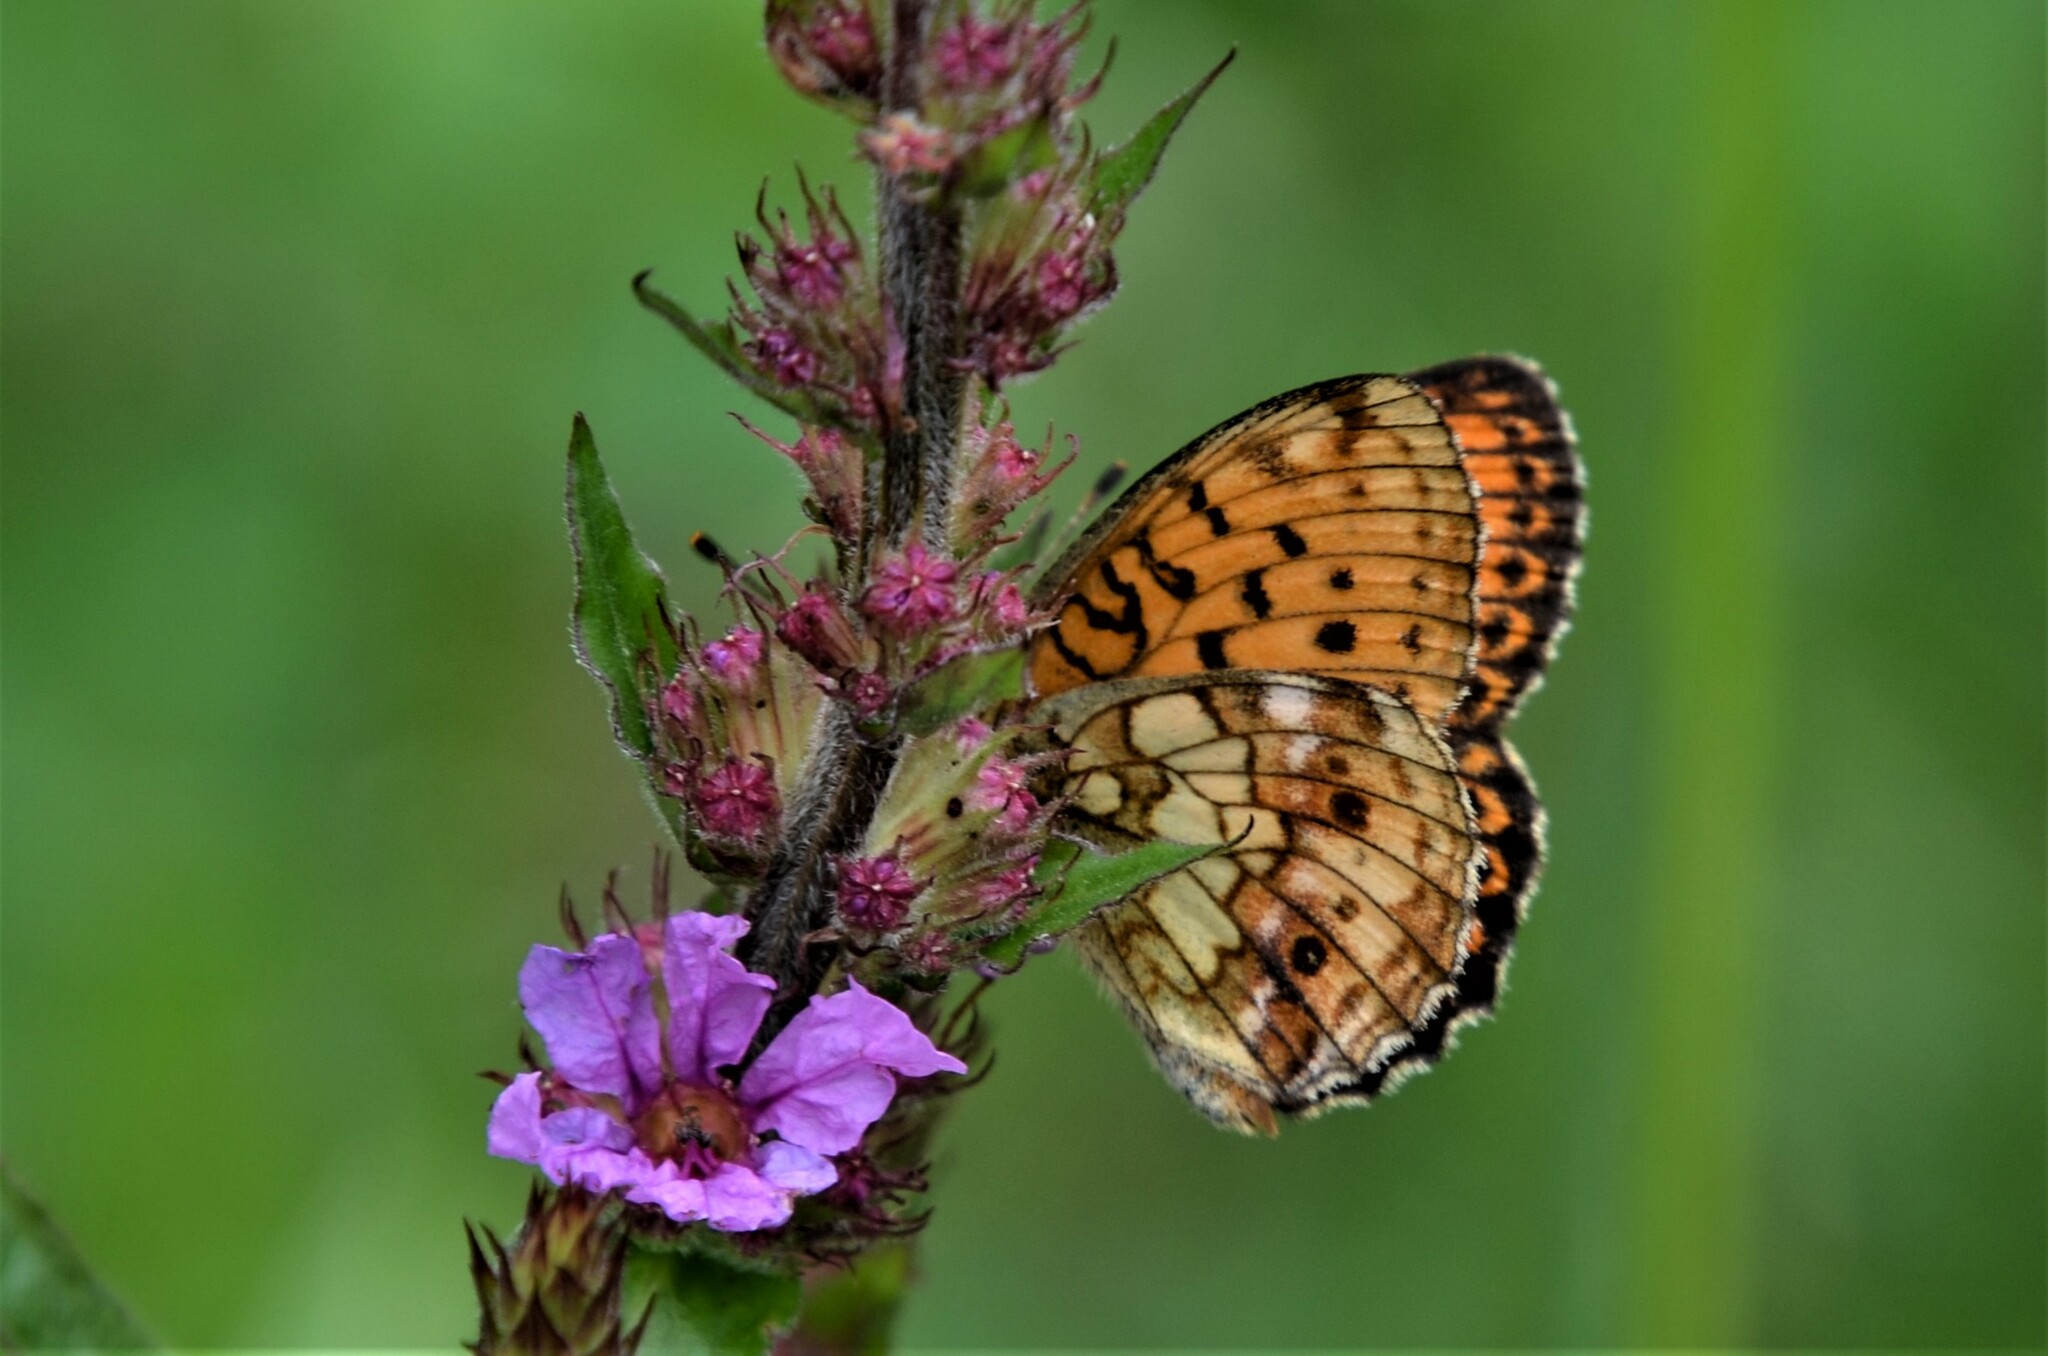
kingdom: Animalia
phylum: Arthropoda
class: Insecta
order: Lepidoptera
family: Nymphalidae
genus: Brenthis
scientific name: Brenthis ino
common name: Lesser marbled fritillary
